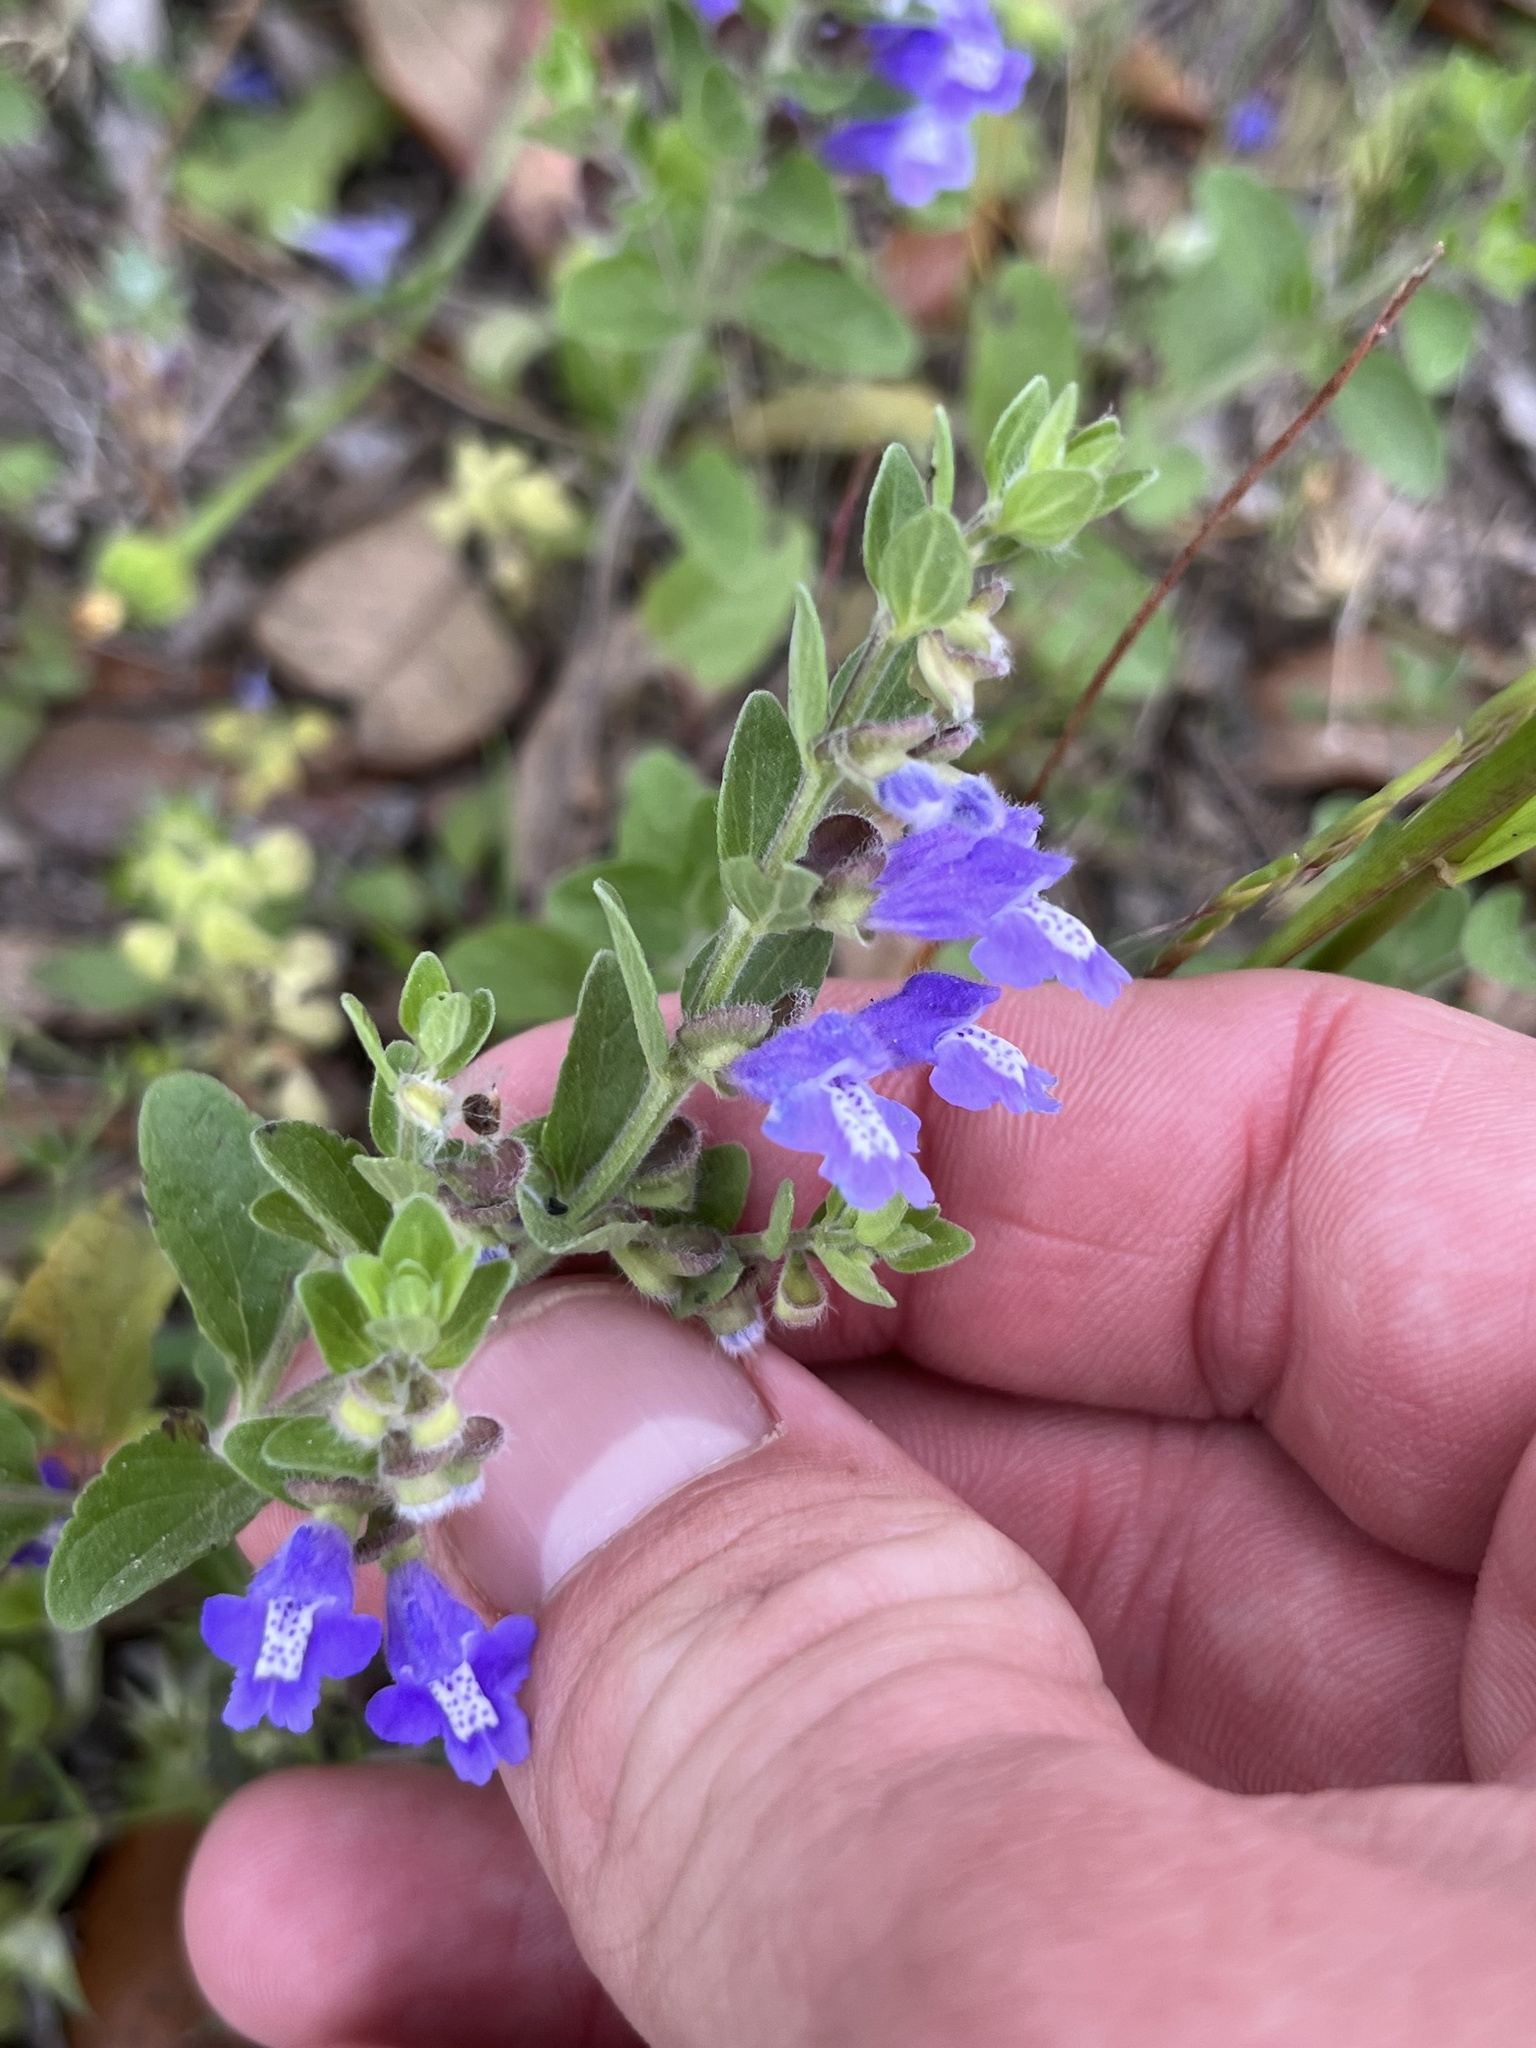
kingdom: Plantae
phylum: Tracheophyta
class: Magnoliopsida
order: Lamiales
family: Lamiaceae
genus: Scutellaria
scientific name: Scutellaria drummondii
